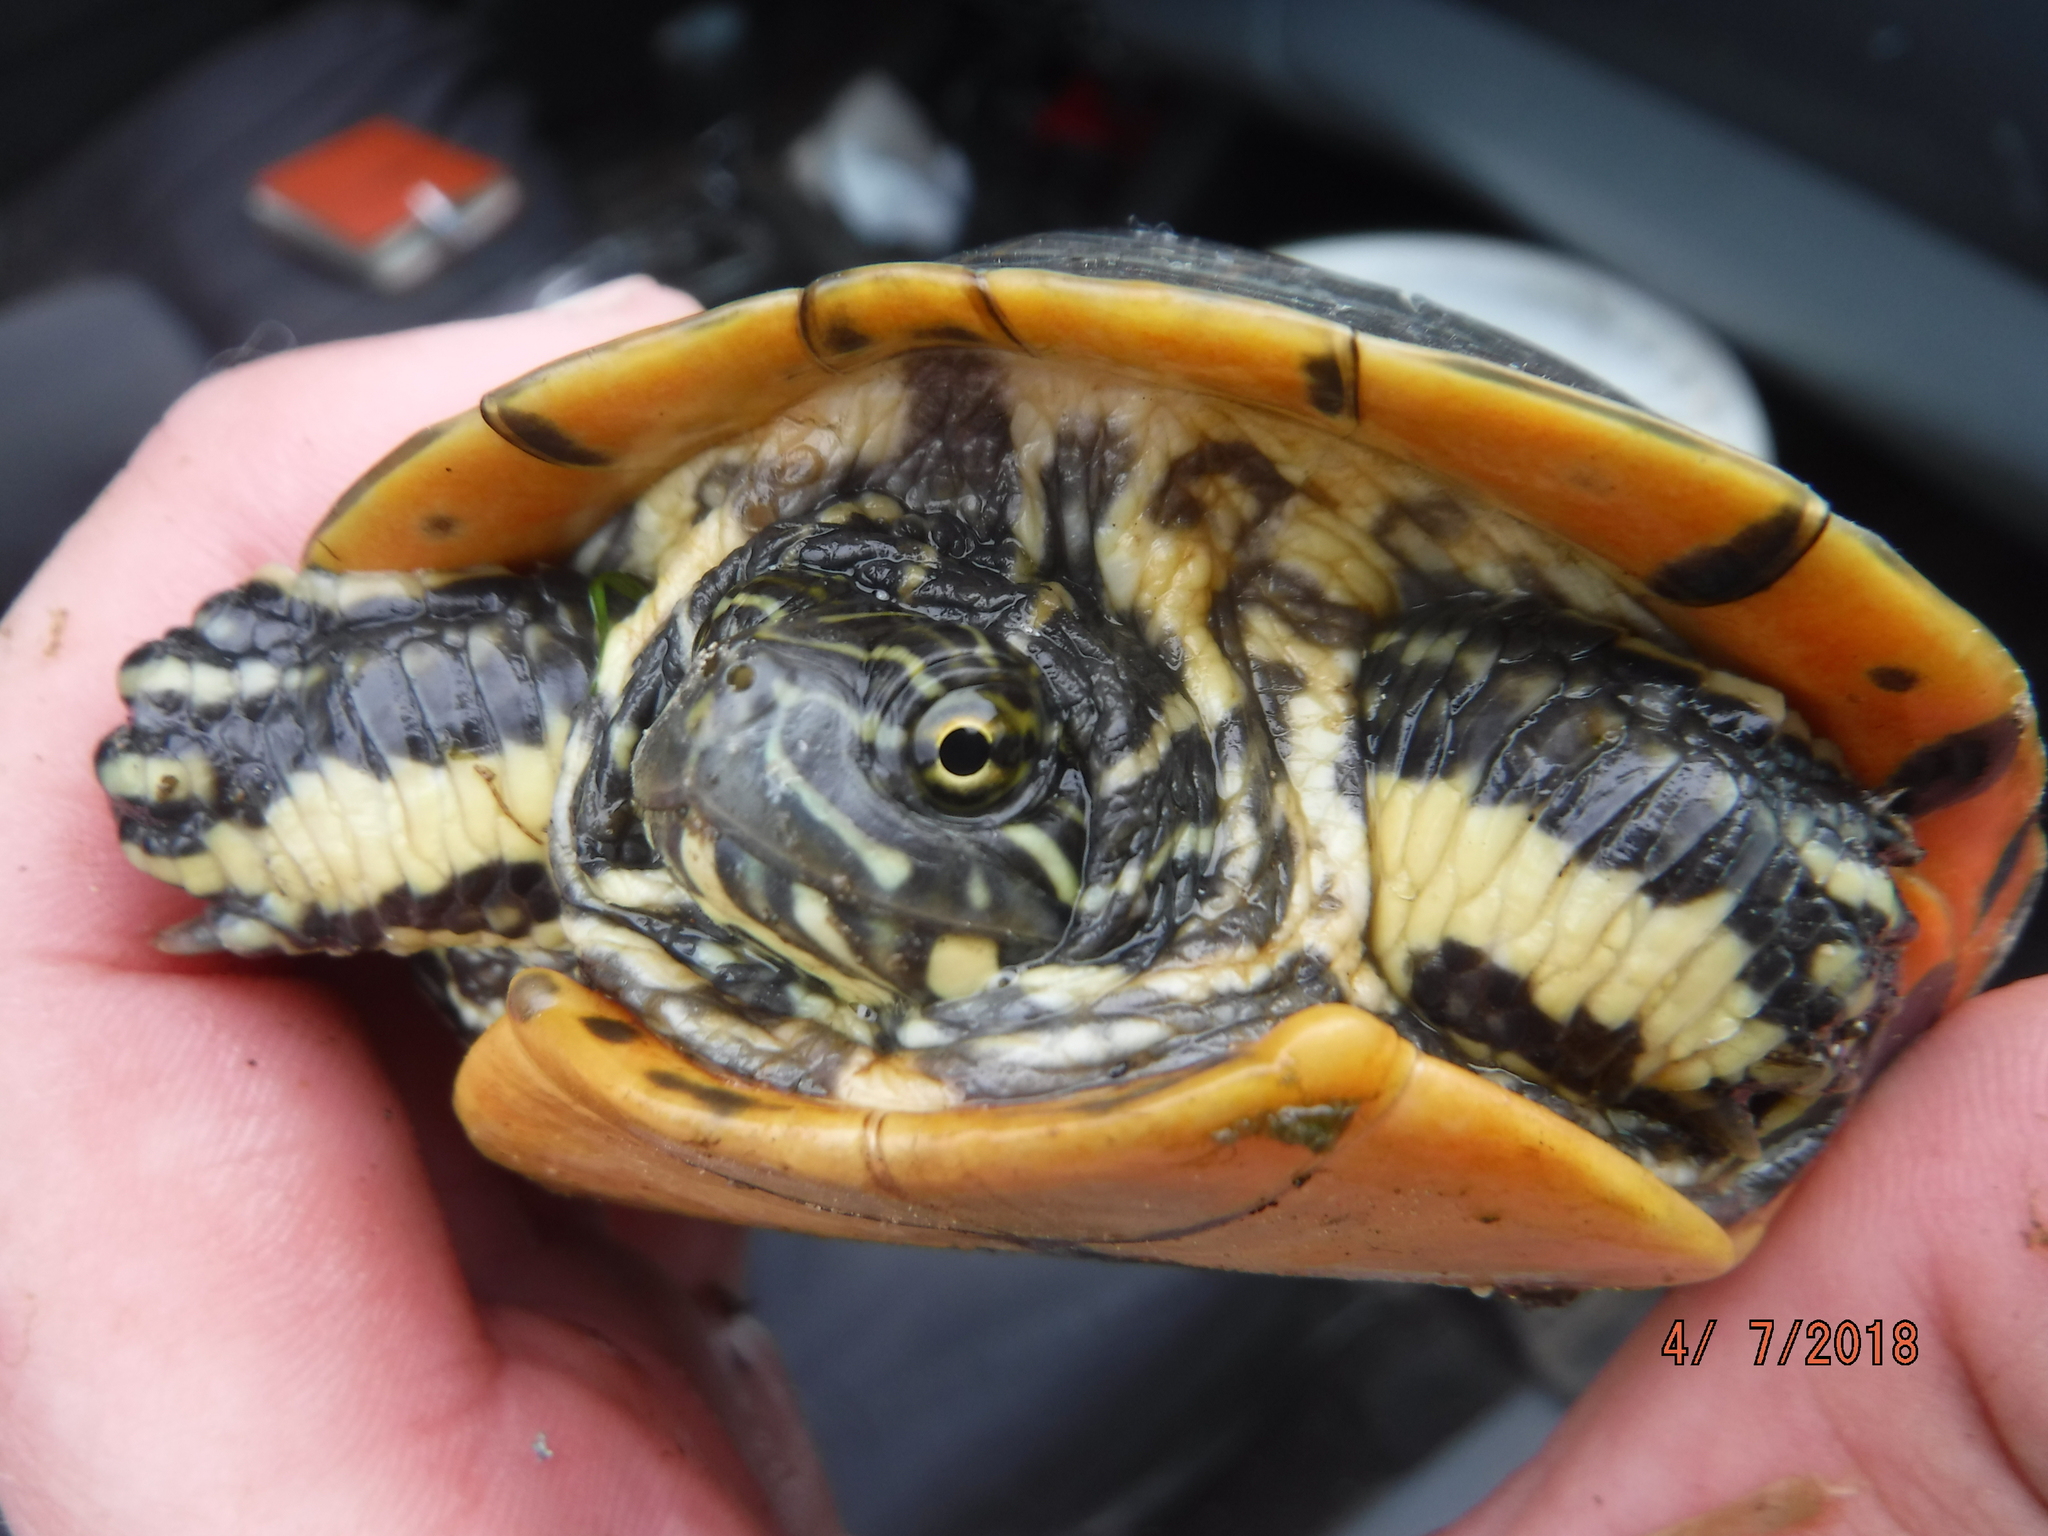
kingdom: Animalia
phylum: Chordata
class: Testudines
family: Emydidae
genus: Deirochelys
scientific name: Deirochelys reticularia
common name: Chicken turtle
